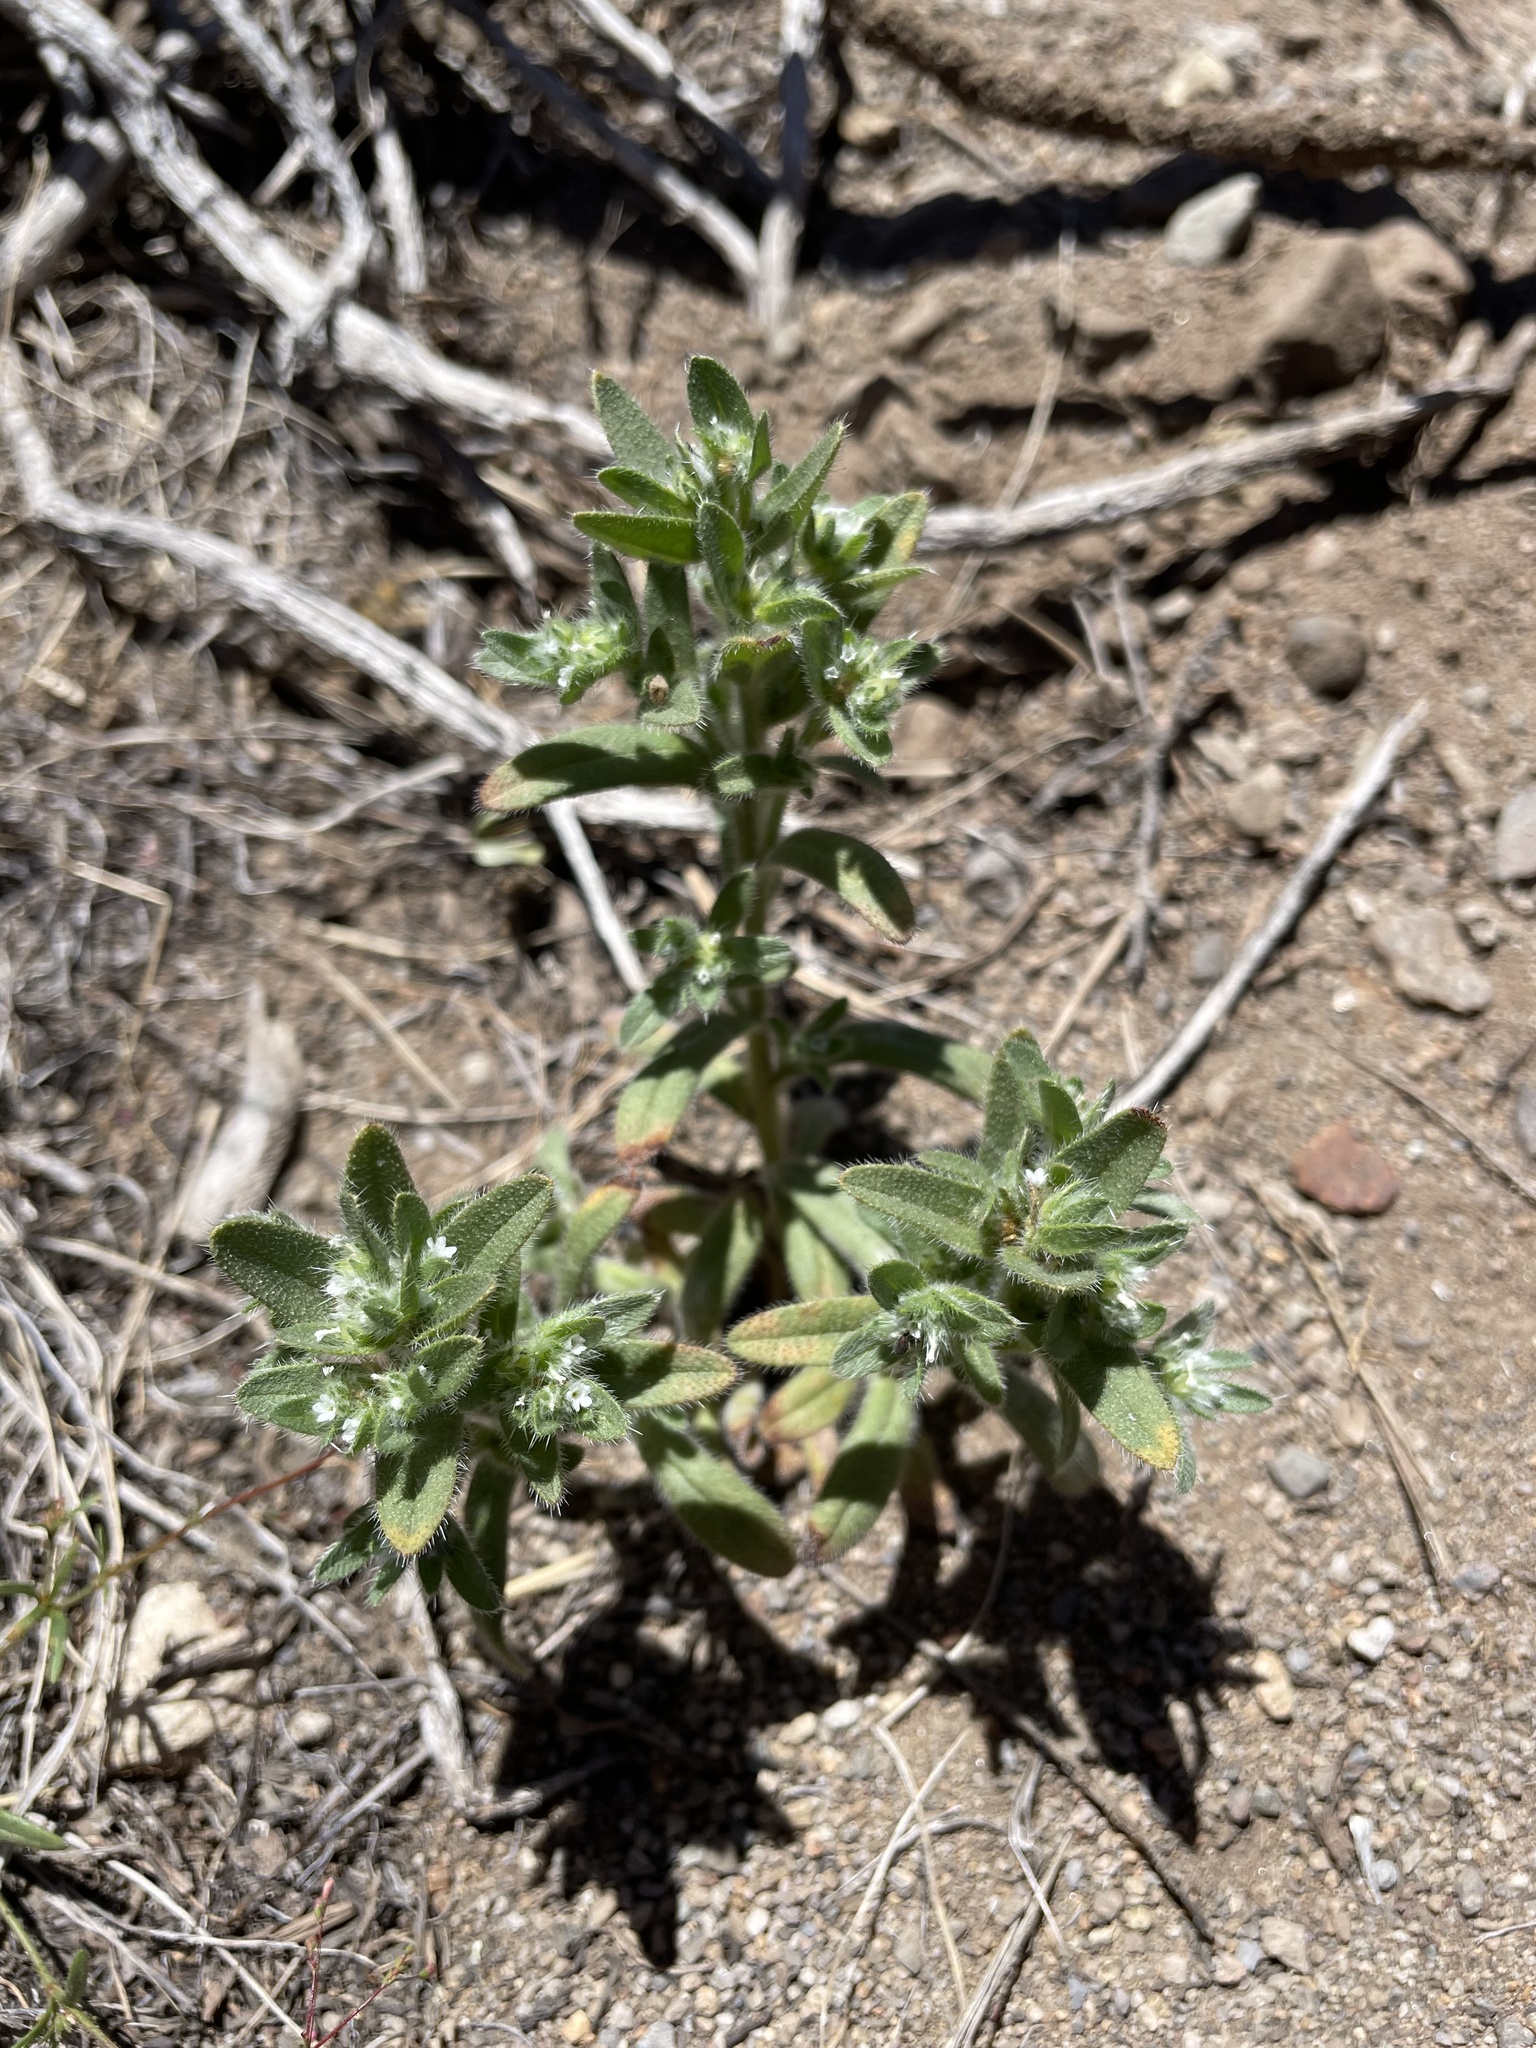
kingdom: Plantae
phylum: Tracheophyta
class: Magnoliopsida
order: Boraginales
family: Boraginaceae
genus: Plagiobothrys
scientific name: Plagiobothrys hispidus
